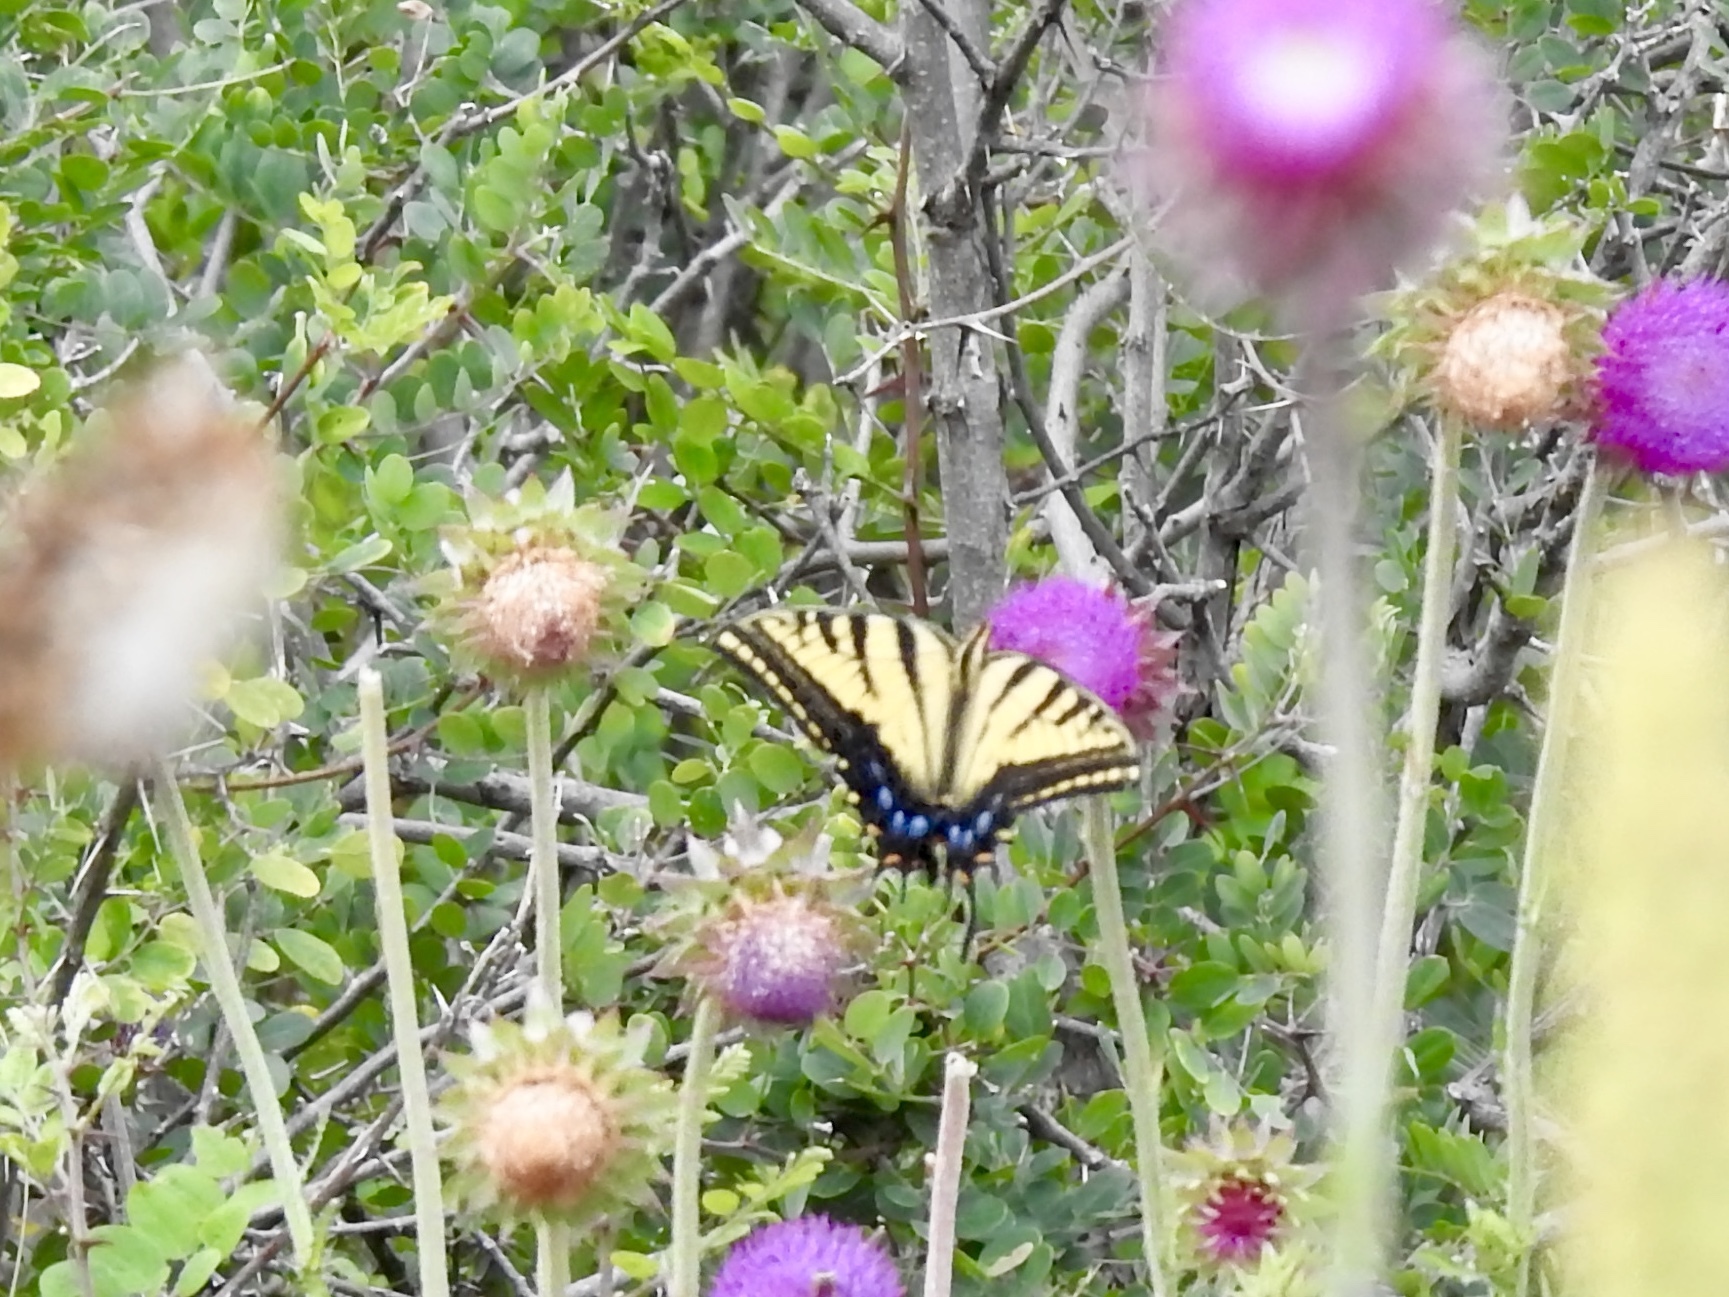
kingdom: Animalia
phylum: Arthropoda
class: Insecta
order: Lepidoptera
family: Papilionidae
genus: Papilio
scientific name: Papilio multicaudata
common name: Two-tailed tiger swallowtail
